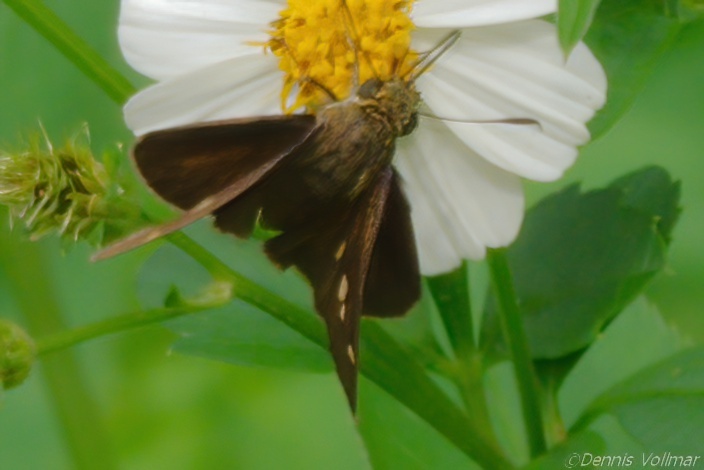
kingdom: Animalia
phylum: Arthropoda
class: Insecta
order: Lepidoptera
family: Hesperiidae
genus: Polites
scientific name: Polites egeremet
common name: Northern broken-dash
